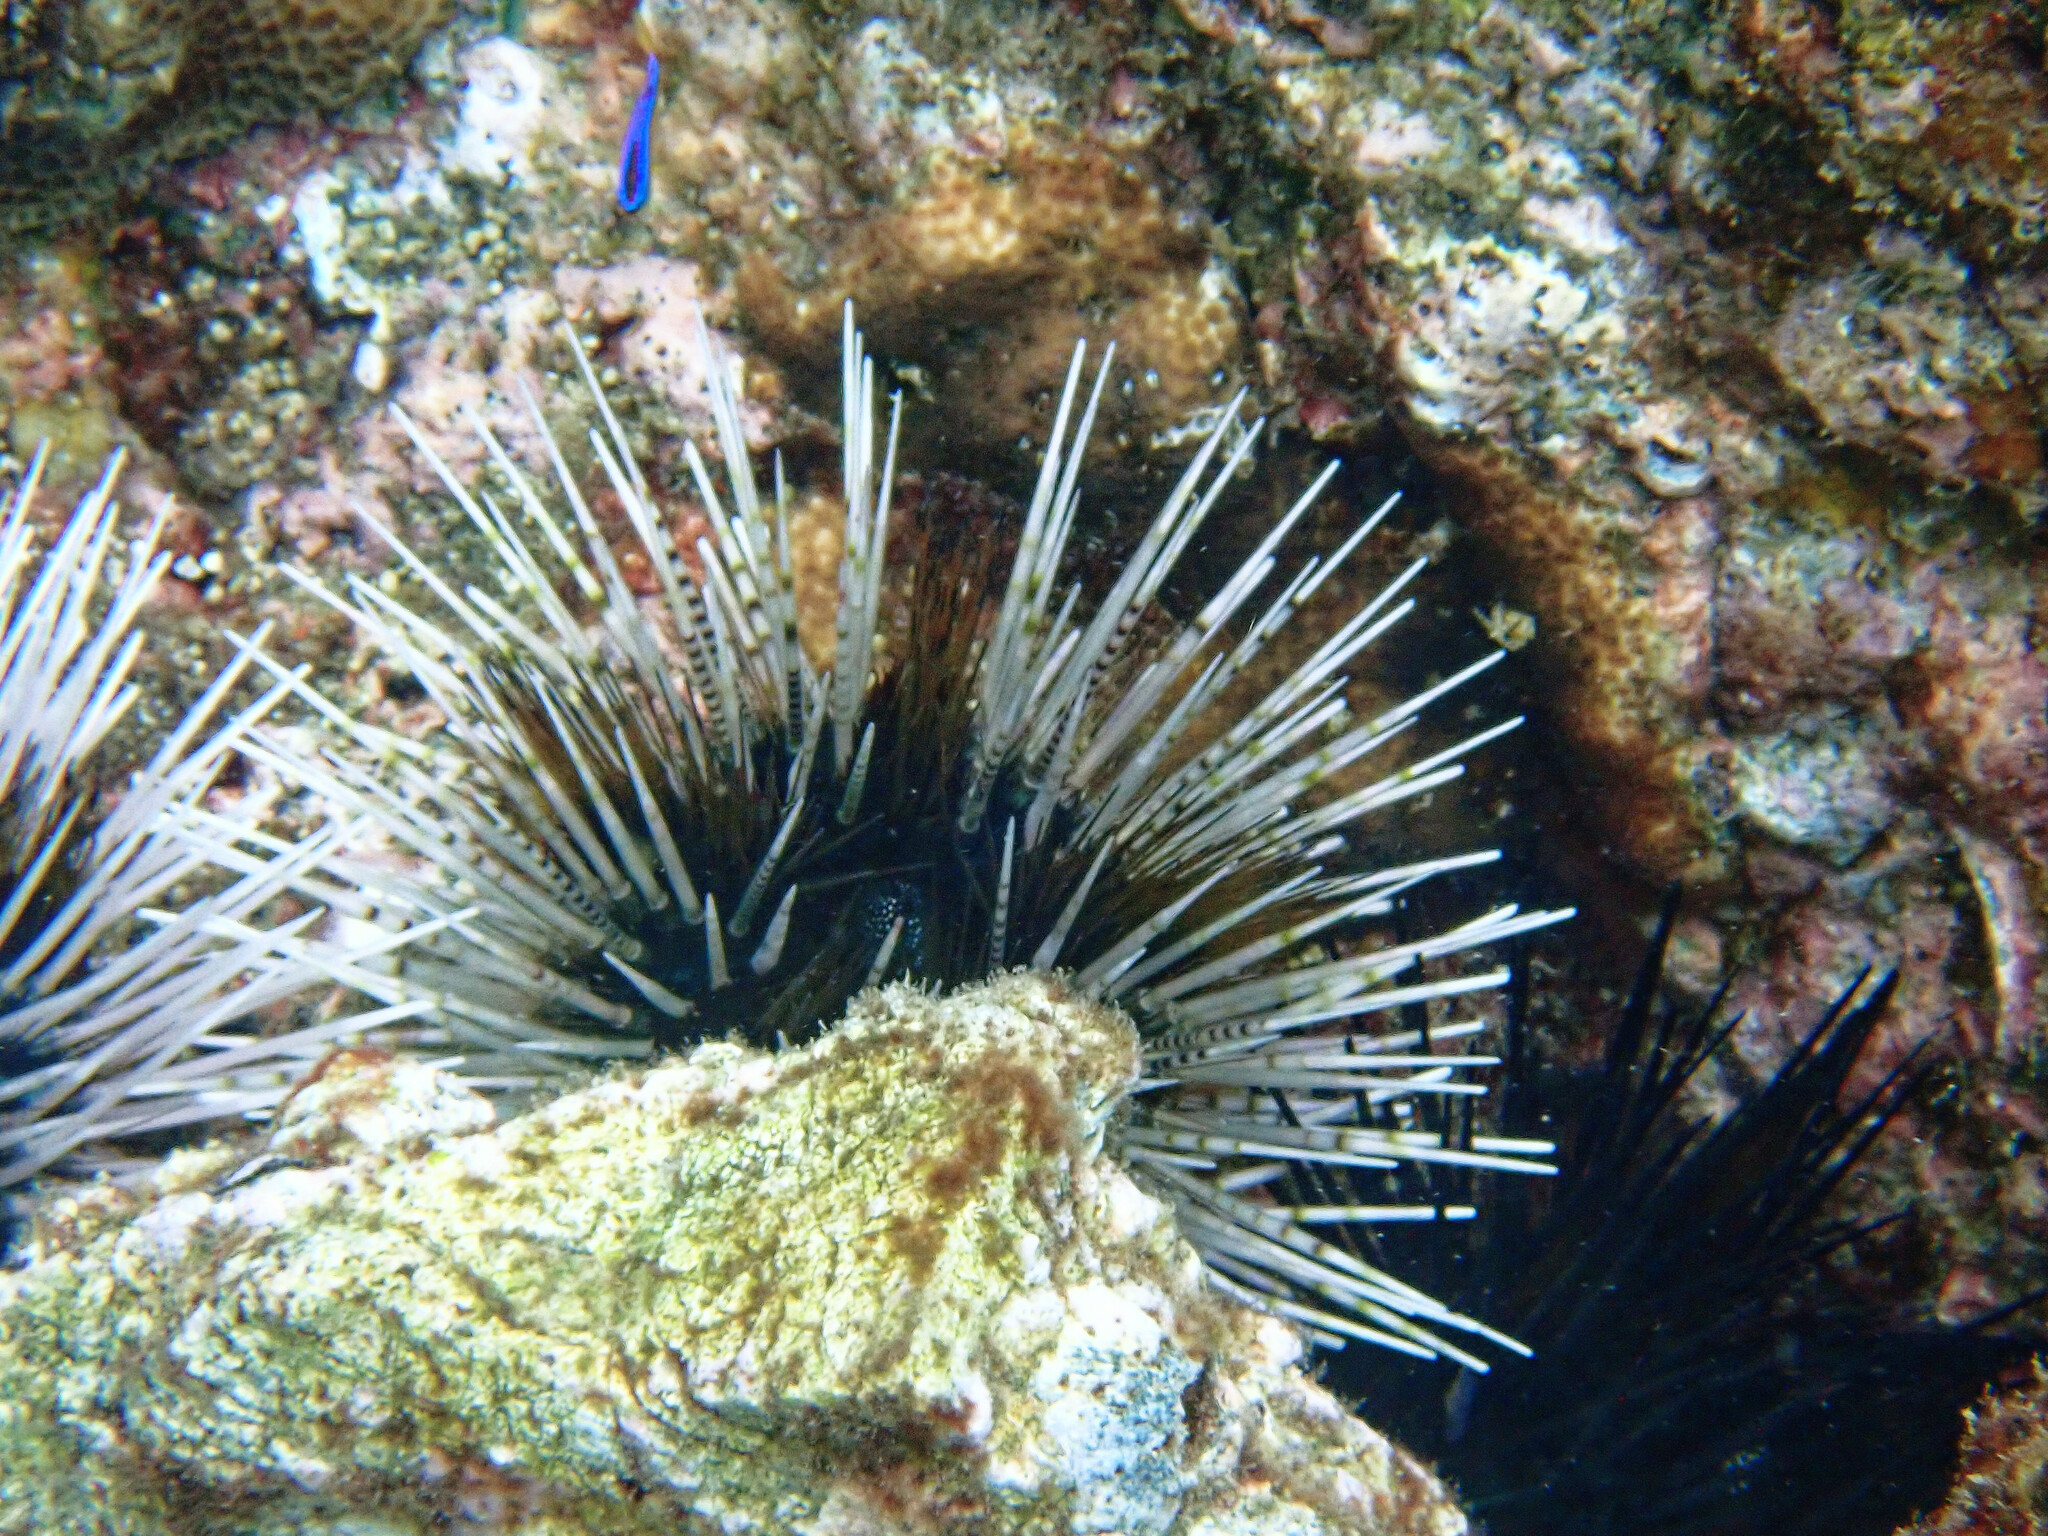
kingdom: Animalia
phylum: Echinodermata
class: Echinoidea
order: Diadematoida
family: Diadematidae
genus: Echinothrix
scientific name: Echinothrix calamaris
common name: Banded sea urchin
